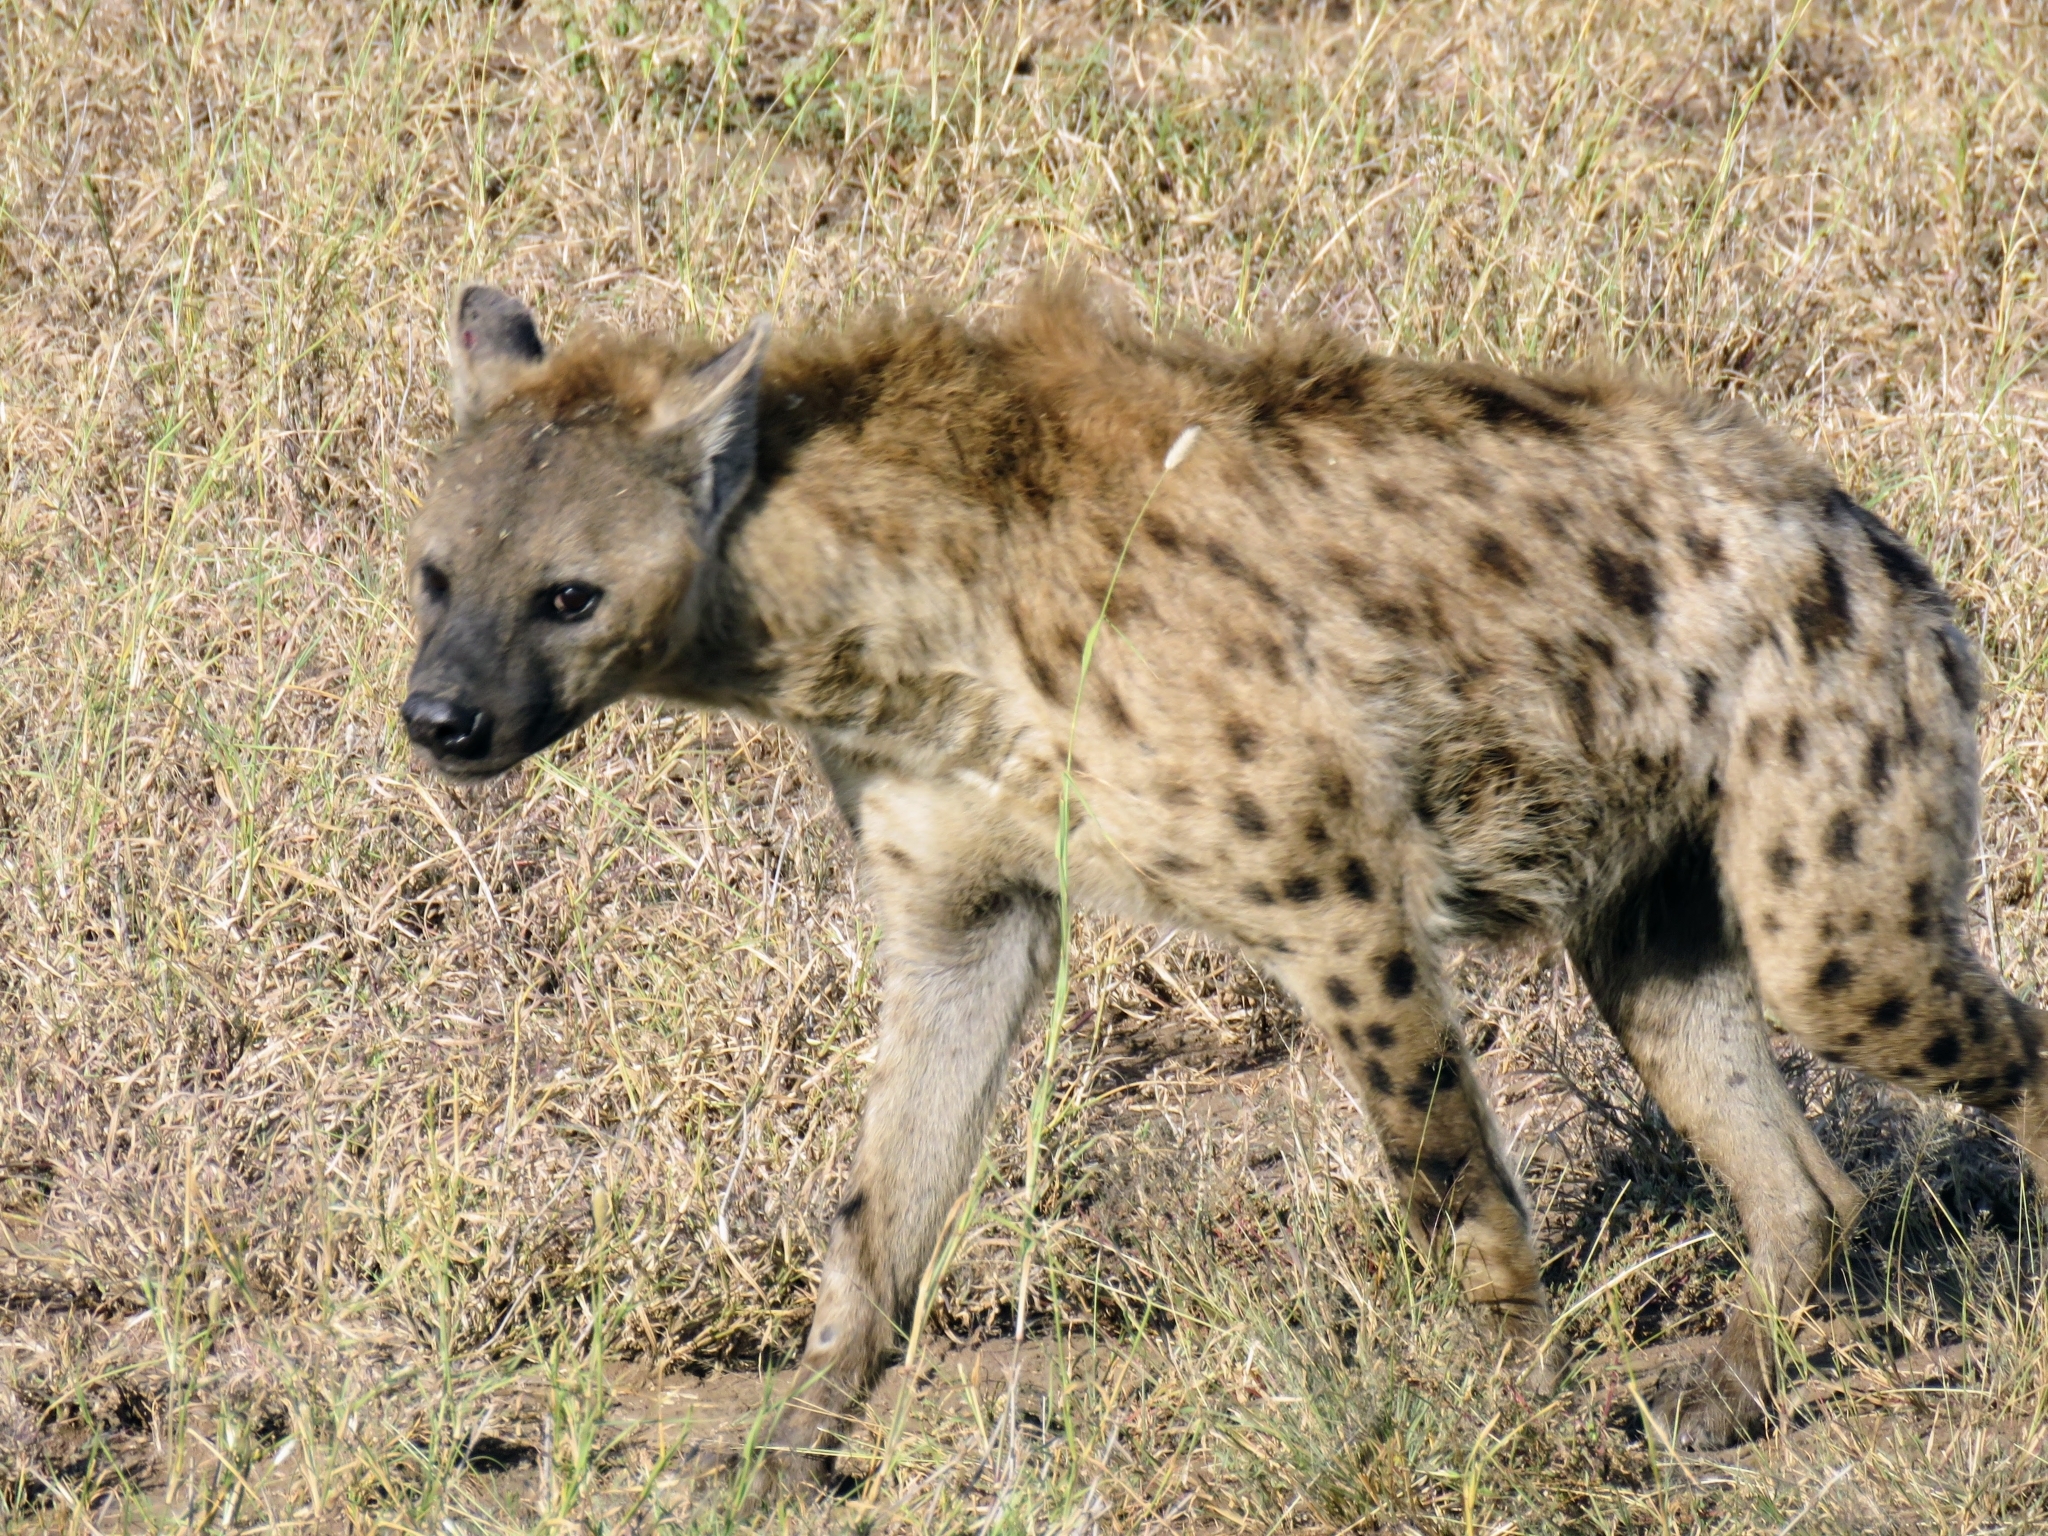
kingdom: Animalia
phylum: Chordata
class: Mammalia
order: Carnivora
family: Hyaenidae
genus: Crocuta
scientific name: Crocuta crocuta
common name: Spotted hyaena
